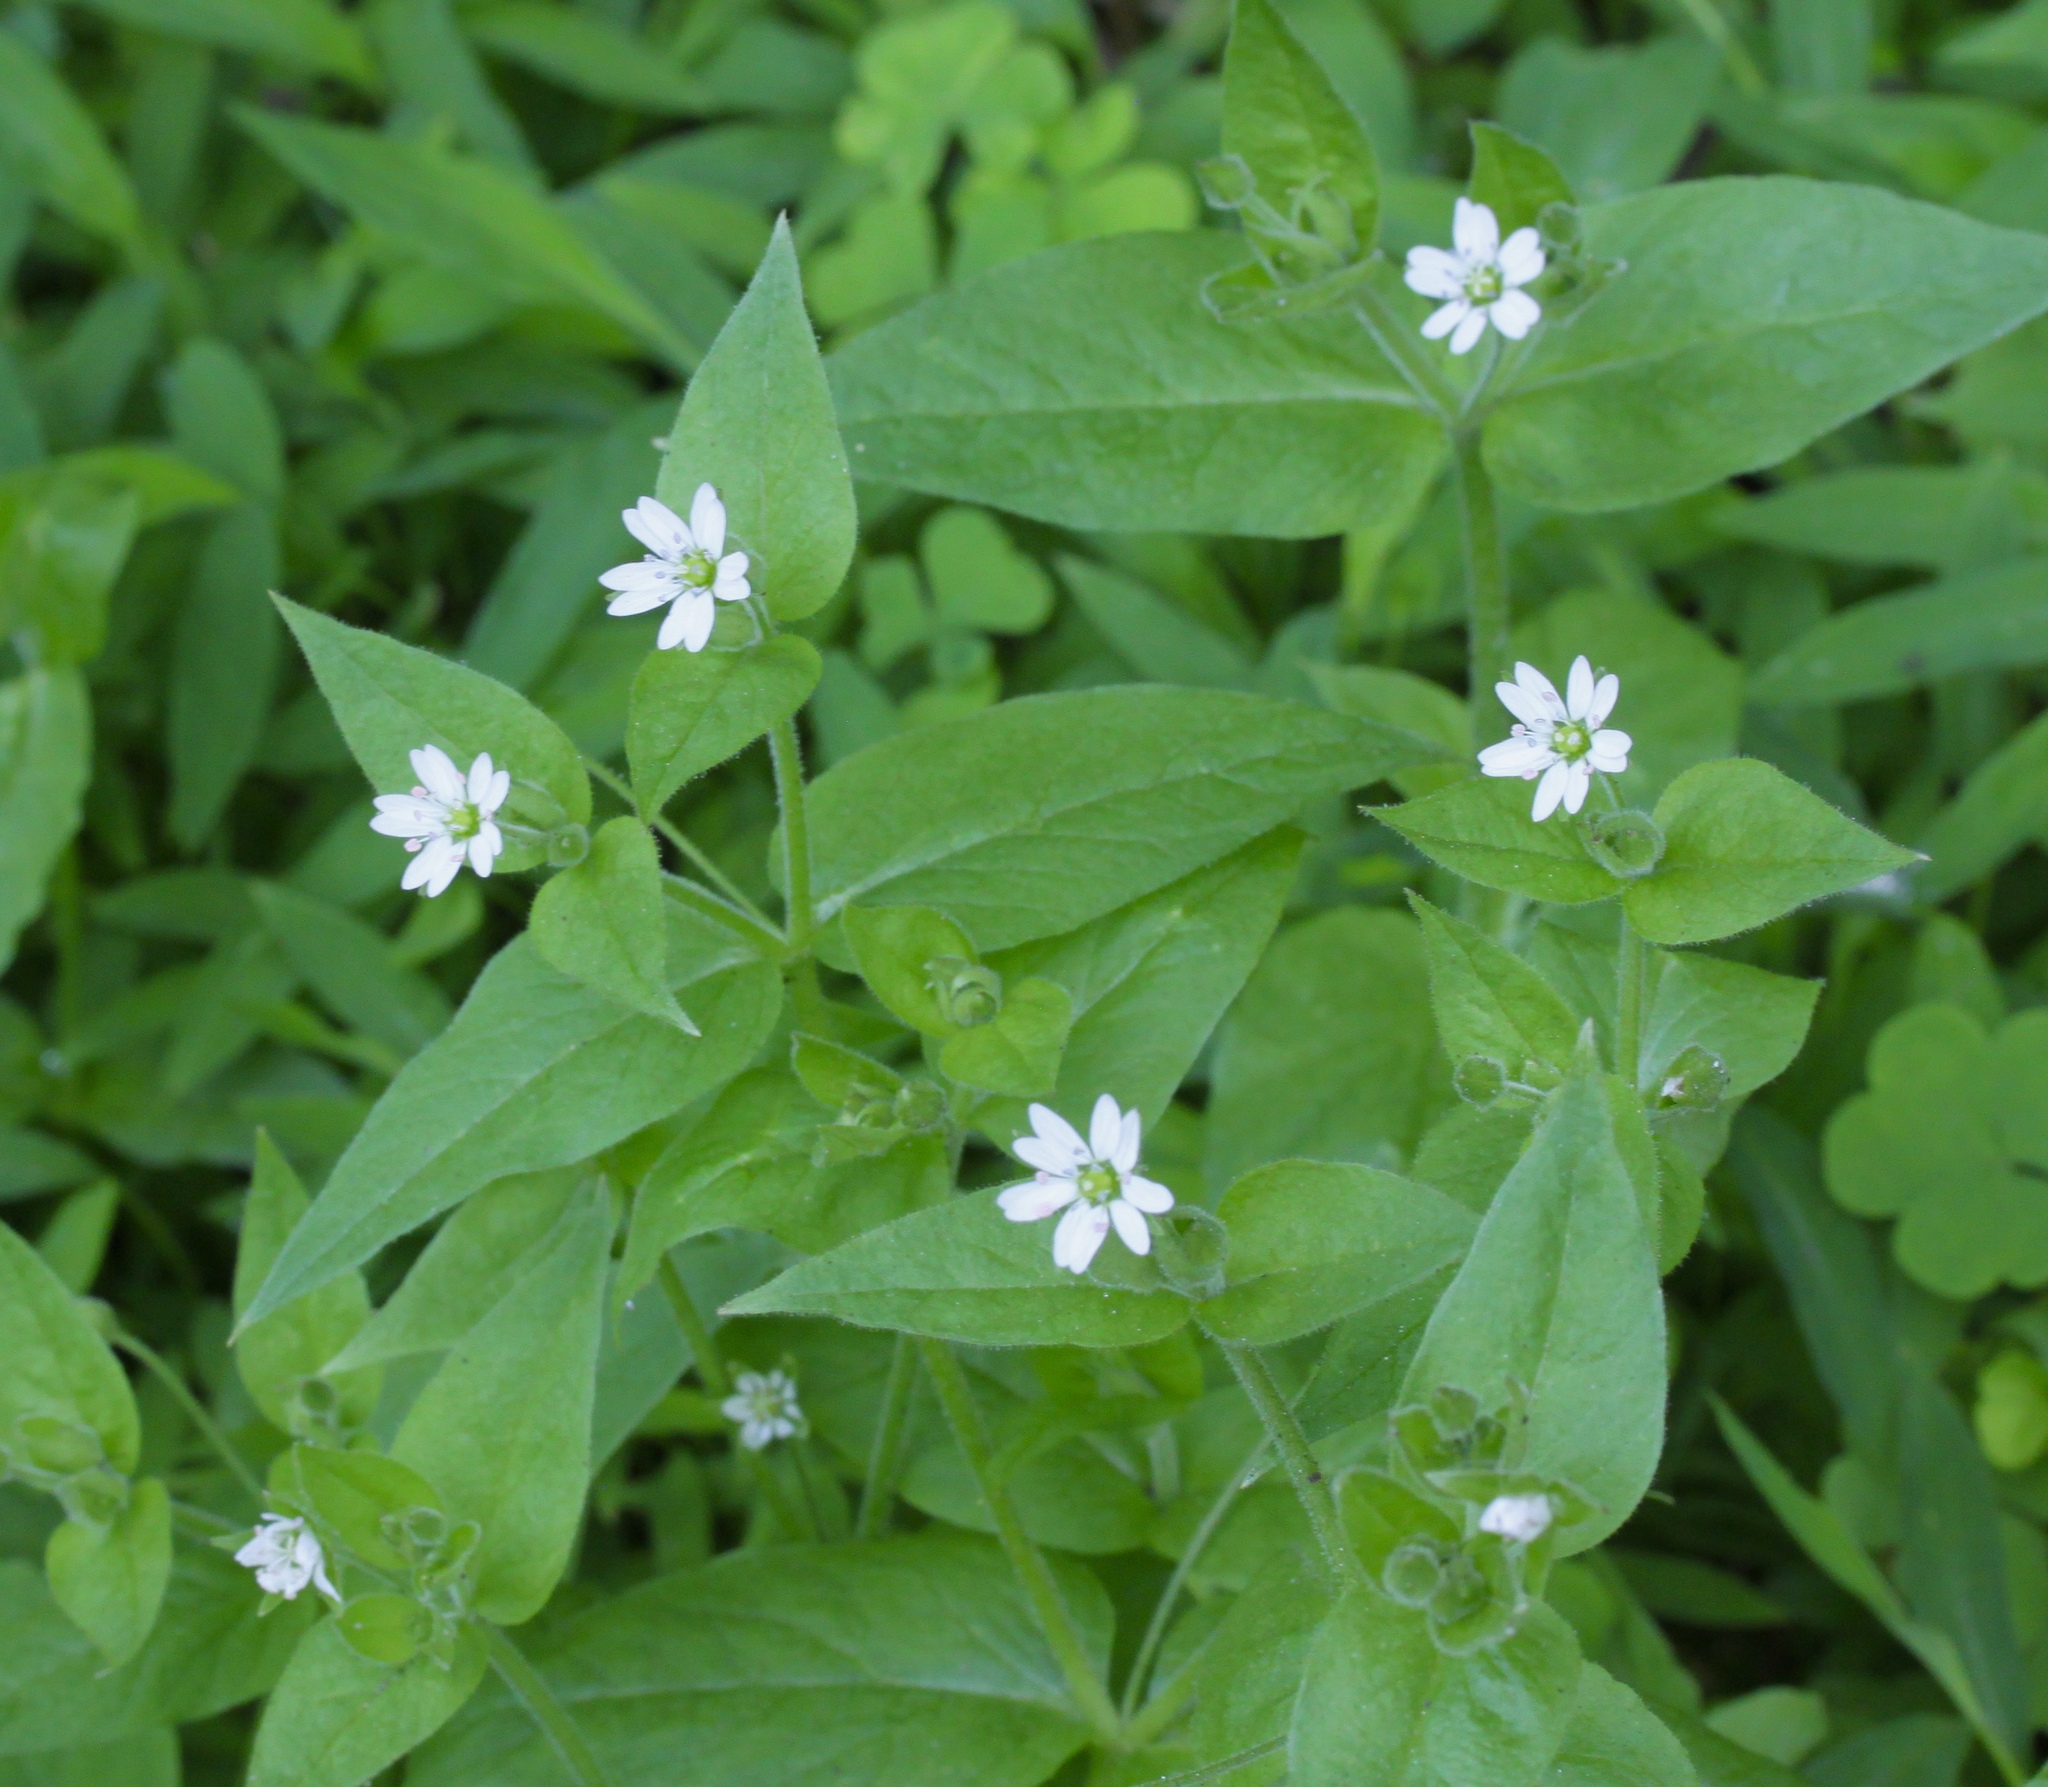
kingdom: Plantae
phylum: Tracheophyta
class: Magnoliopsida
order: Caryophyllales
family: Caryophyllaceae
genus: Stellaria
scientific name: Stellaria media
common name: Common chickweed
